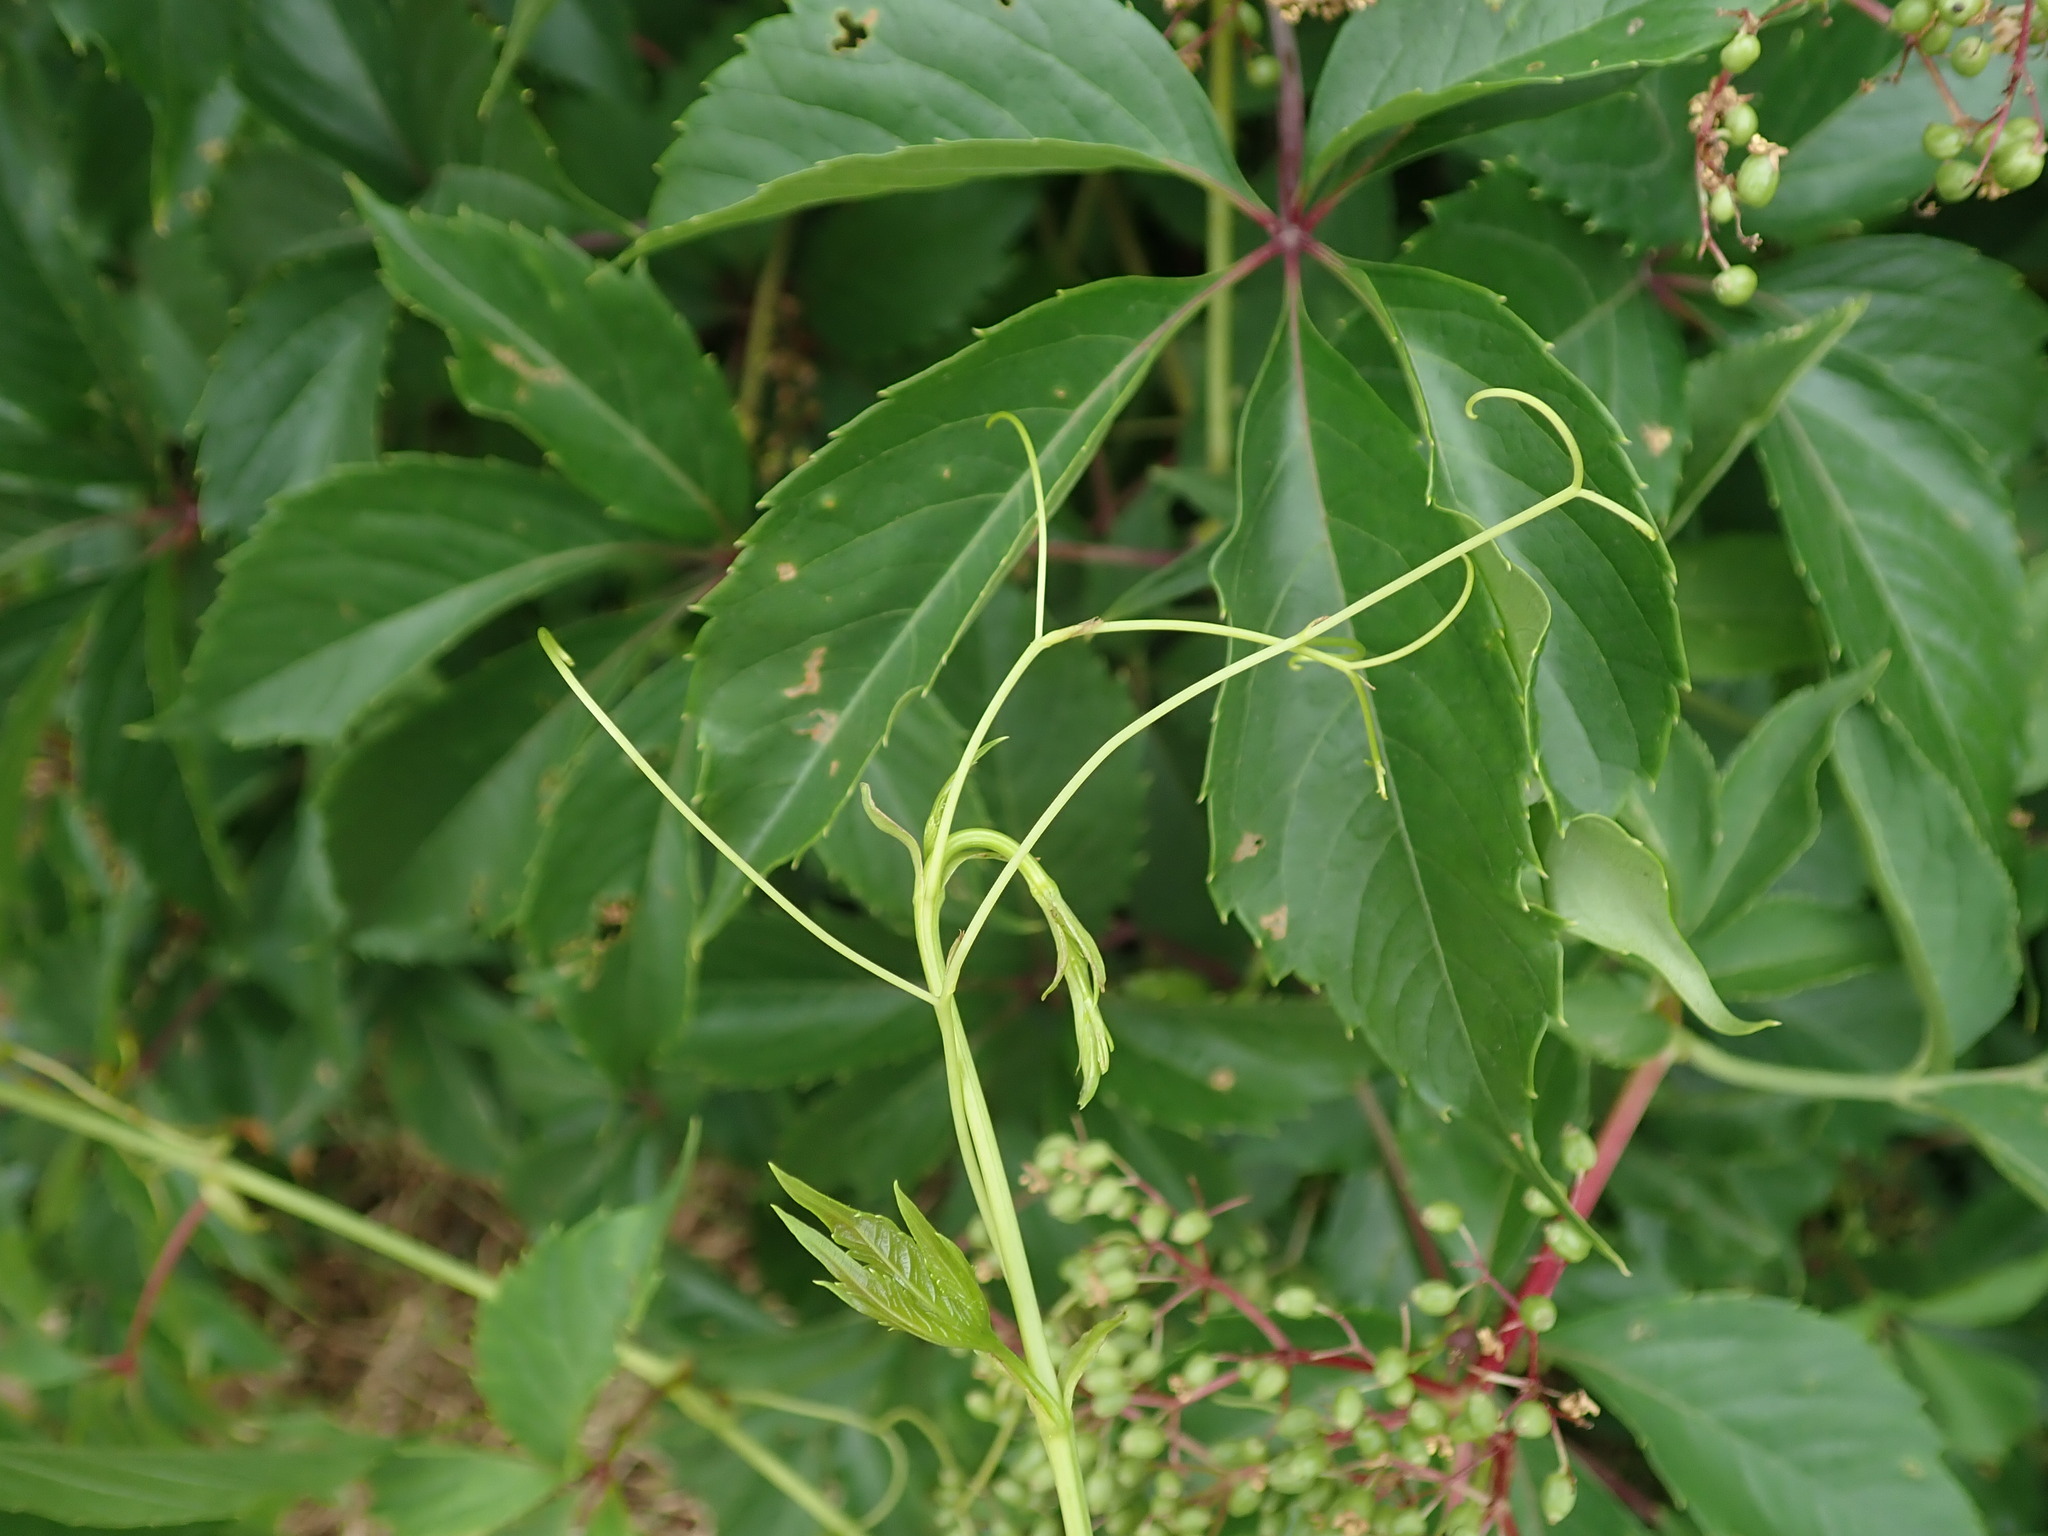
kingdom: Plantae
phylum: Tracheophyta
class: Magnoliopsida
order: Vitales
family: Vitaceae
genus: Parthenocissus
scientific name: Parthenocissus quinquefolia
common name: Virginia-creeper
